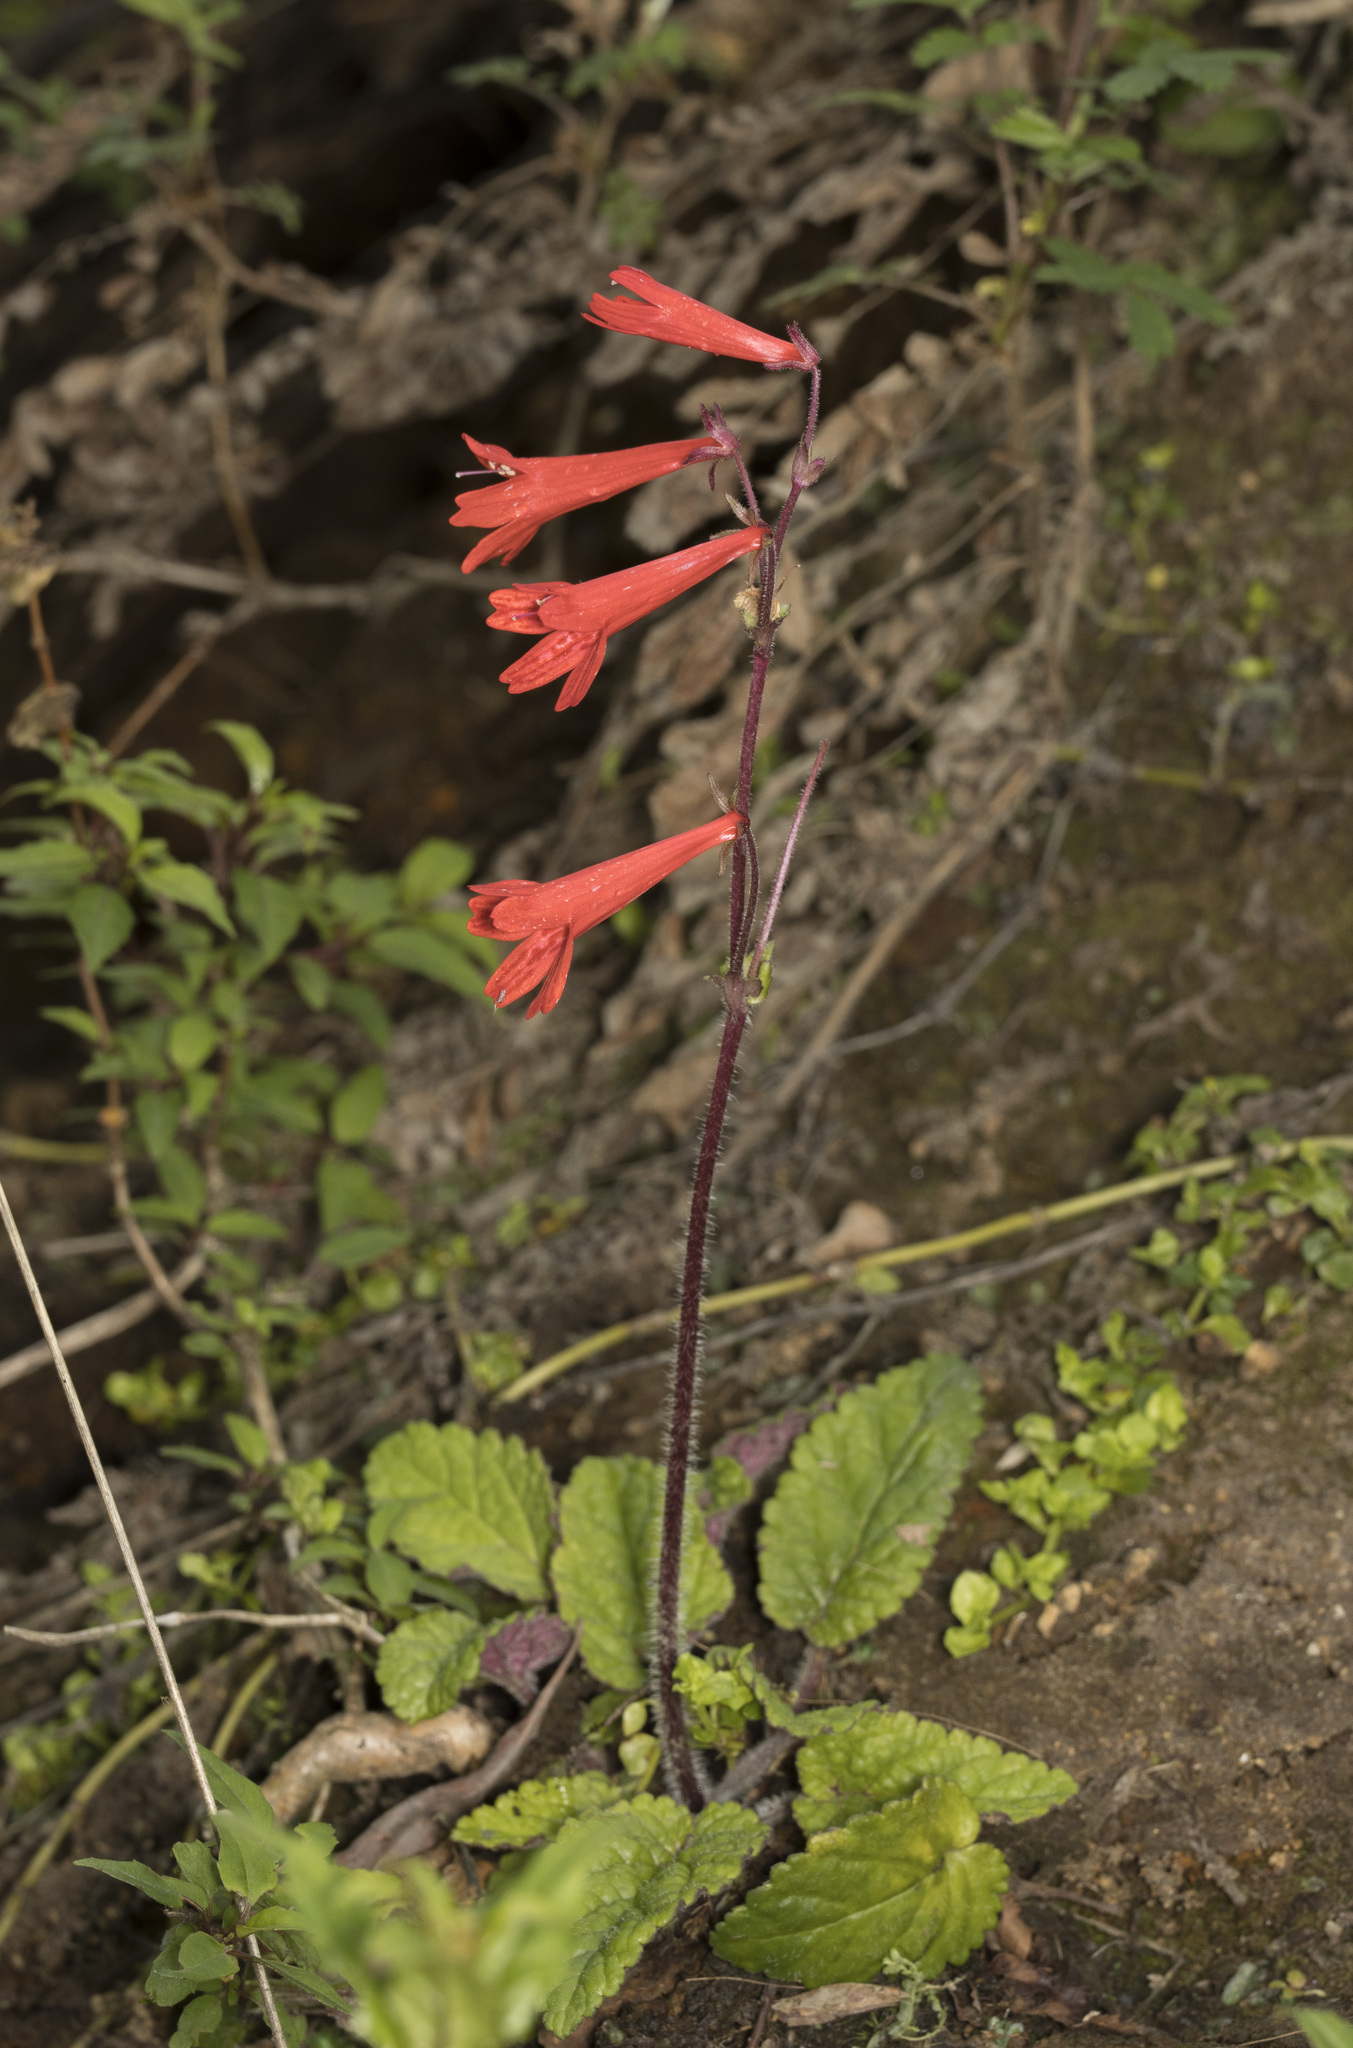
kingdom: Plantae
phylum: Tracheophyta
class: Magnoliopsida
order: Lamiales
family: Plantaginaceae
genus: Ourisia
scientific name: Ourisia coccinea
